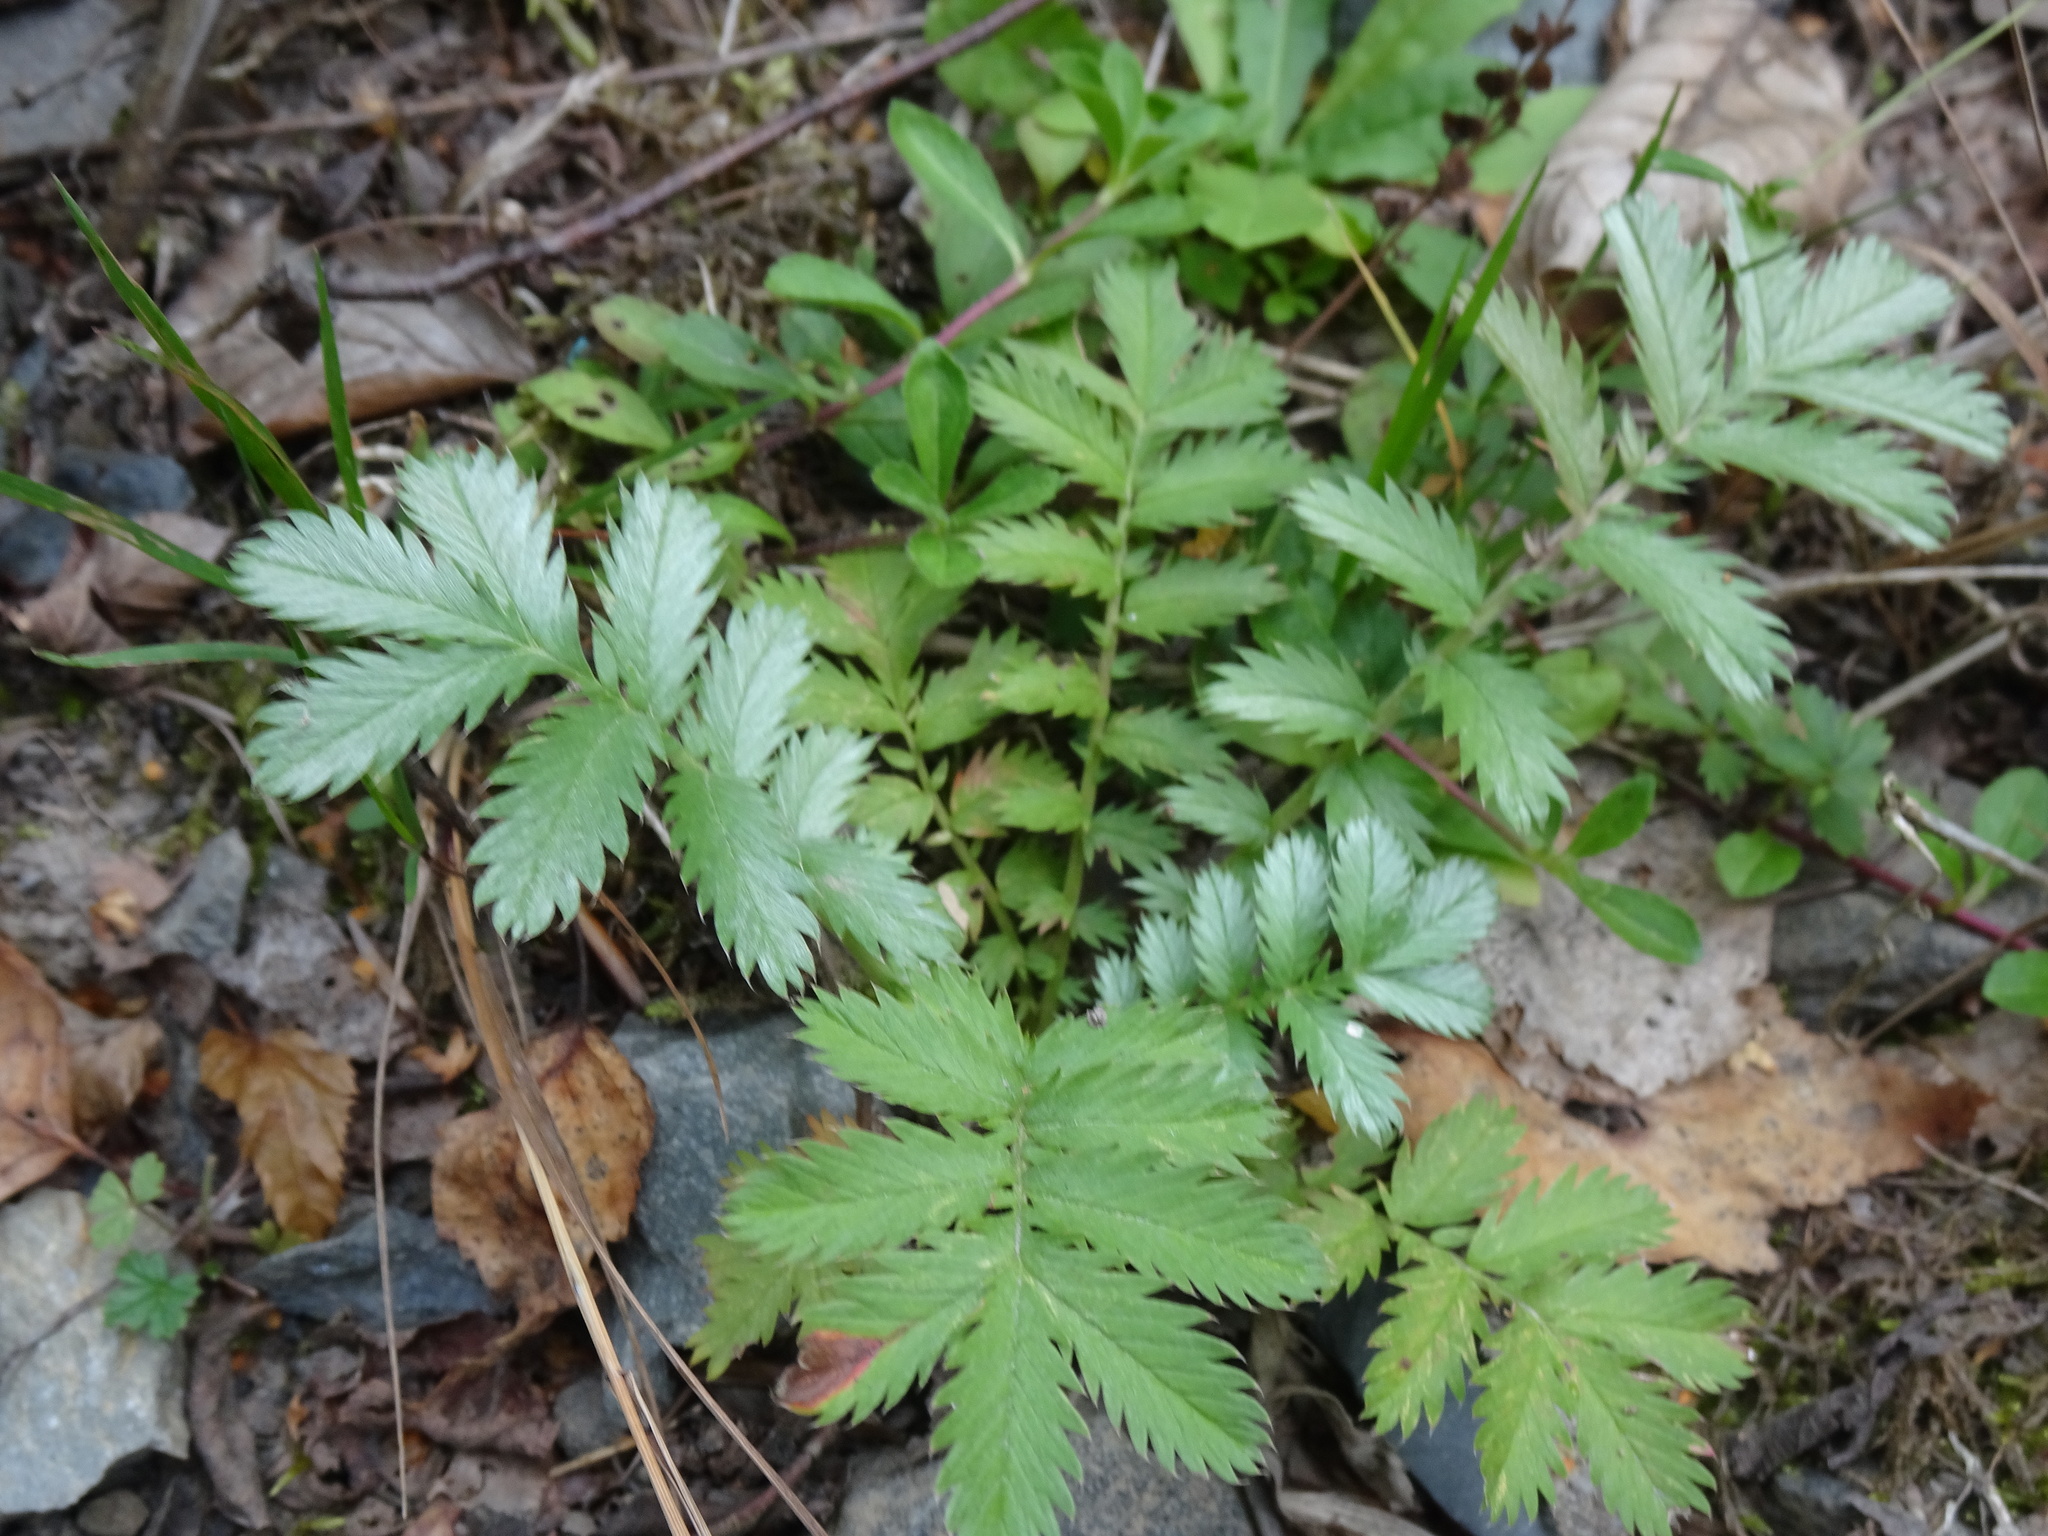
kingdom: Plantae
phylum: Tracheophyta
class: Magnoliopsida
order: Rosales
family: Rosaceae
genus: Argentina
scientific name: Argentina anserina
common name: Common silverweed
